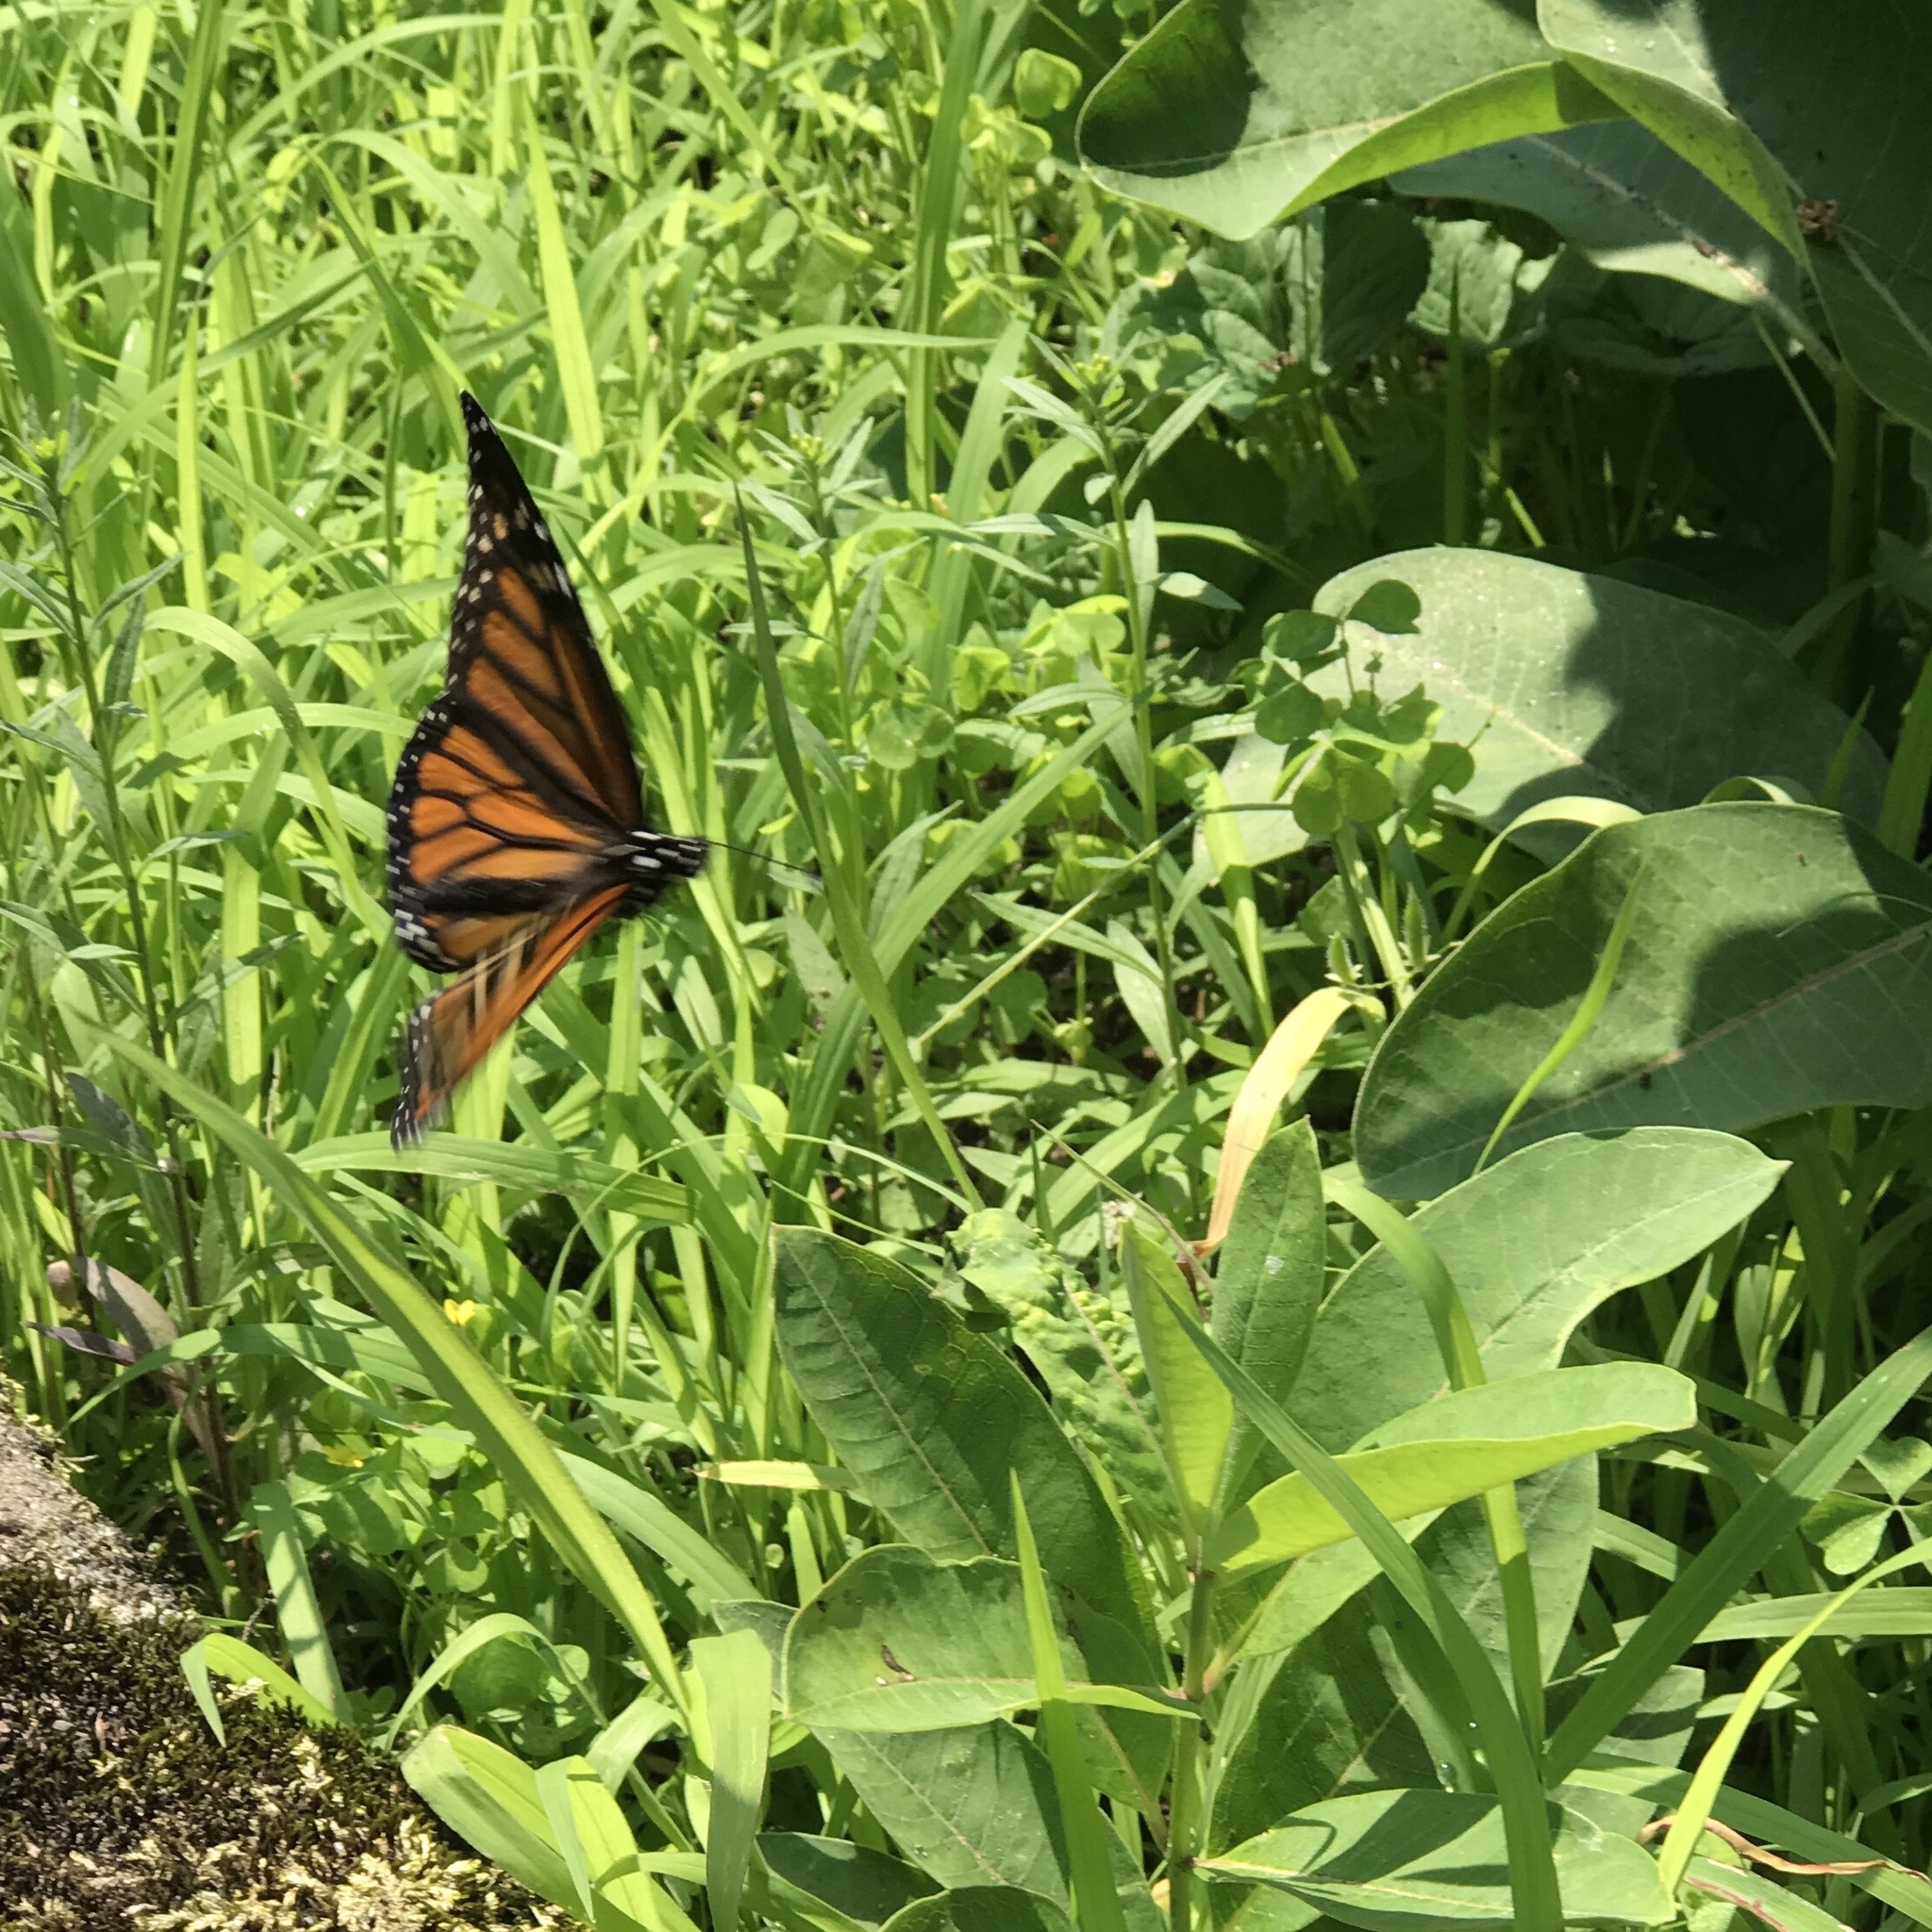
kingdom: Animalia
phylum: Arthropoda
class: Insecta
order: Lepidoptera
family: Nymphalidae
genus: Danaus
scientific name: Danaus plexippus
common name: Monarch
